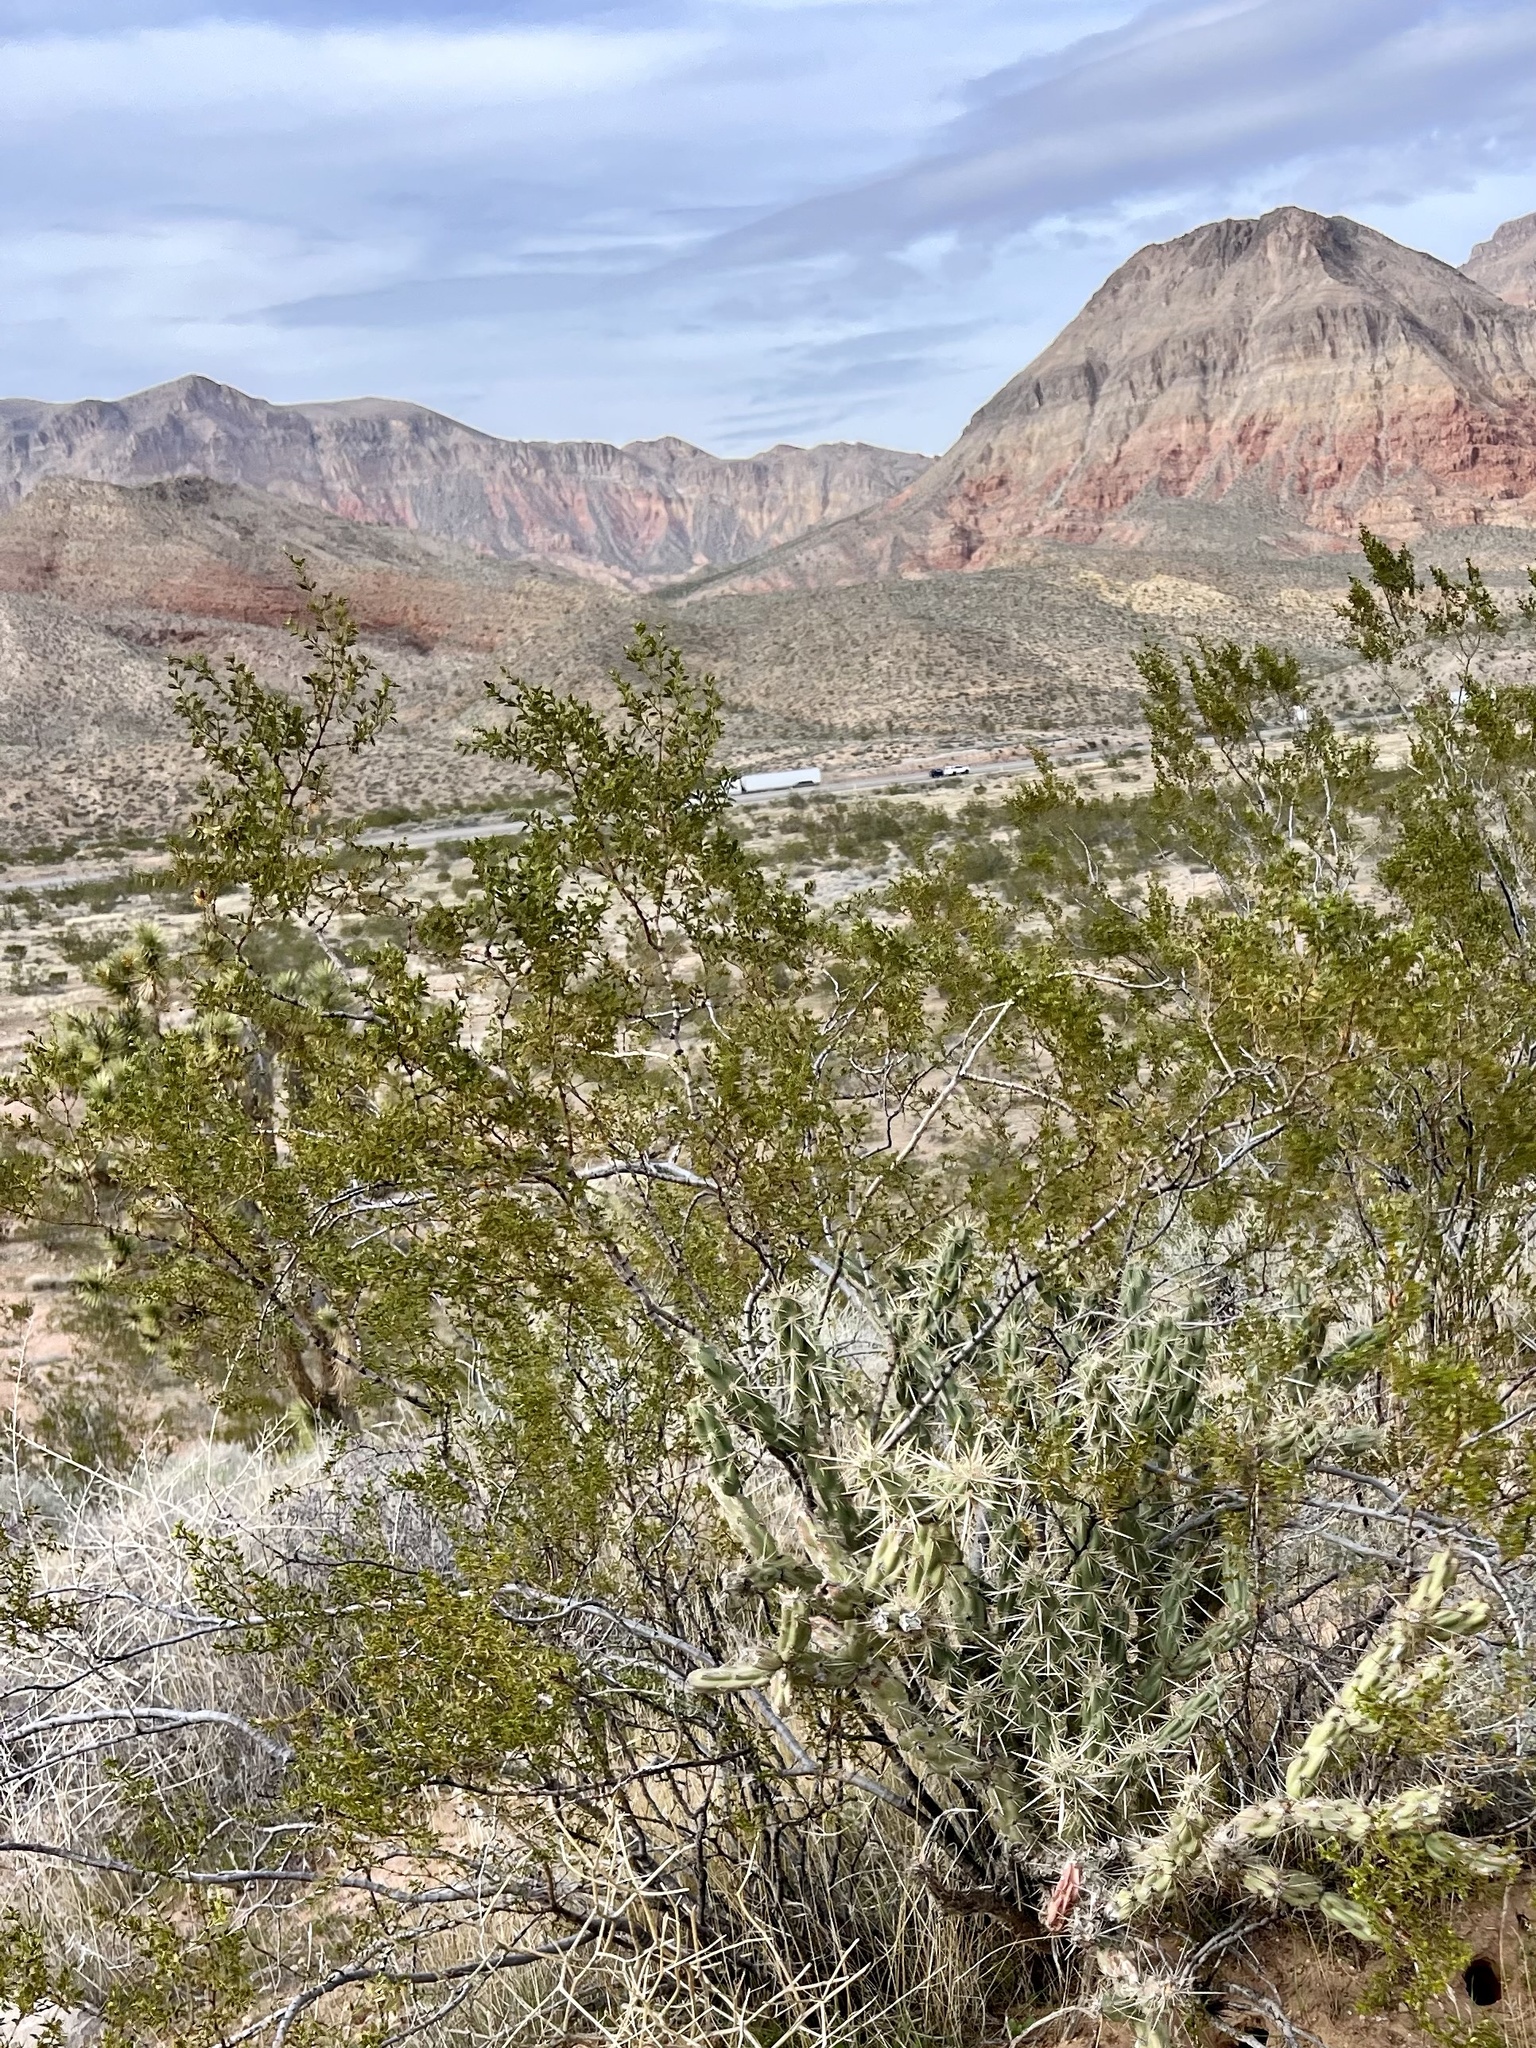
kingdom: Plantae
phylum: Tracheophyta
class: Magnoliopsida
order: Zygophyllales
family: Zygophyllaceae
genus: Larrea
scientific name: Larrea tridentata
